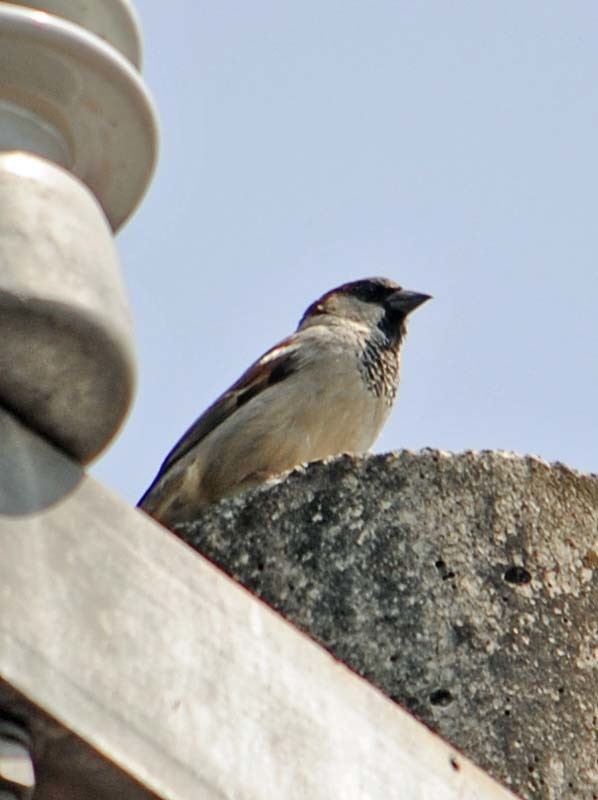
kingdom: Animalia
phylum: Chordata
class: Aves
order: Passeriformes
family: Passeridae
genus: Passer
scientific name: Passer domesticus
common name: House sparrow
